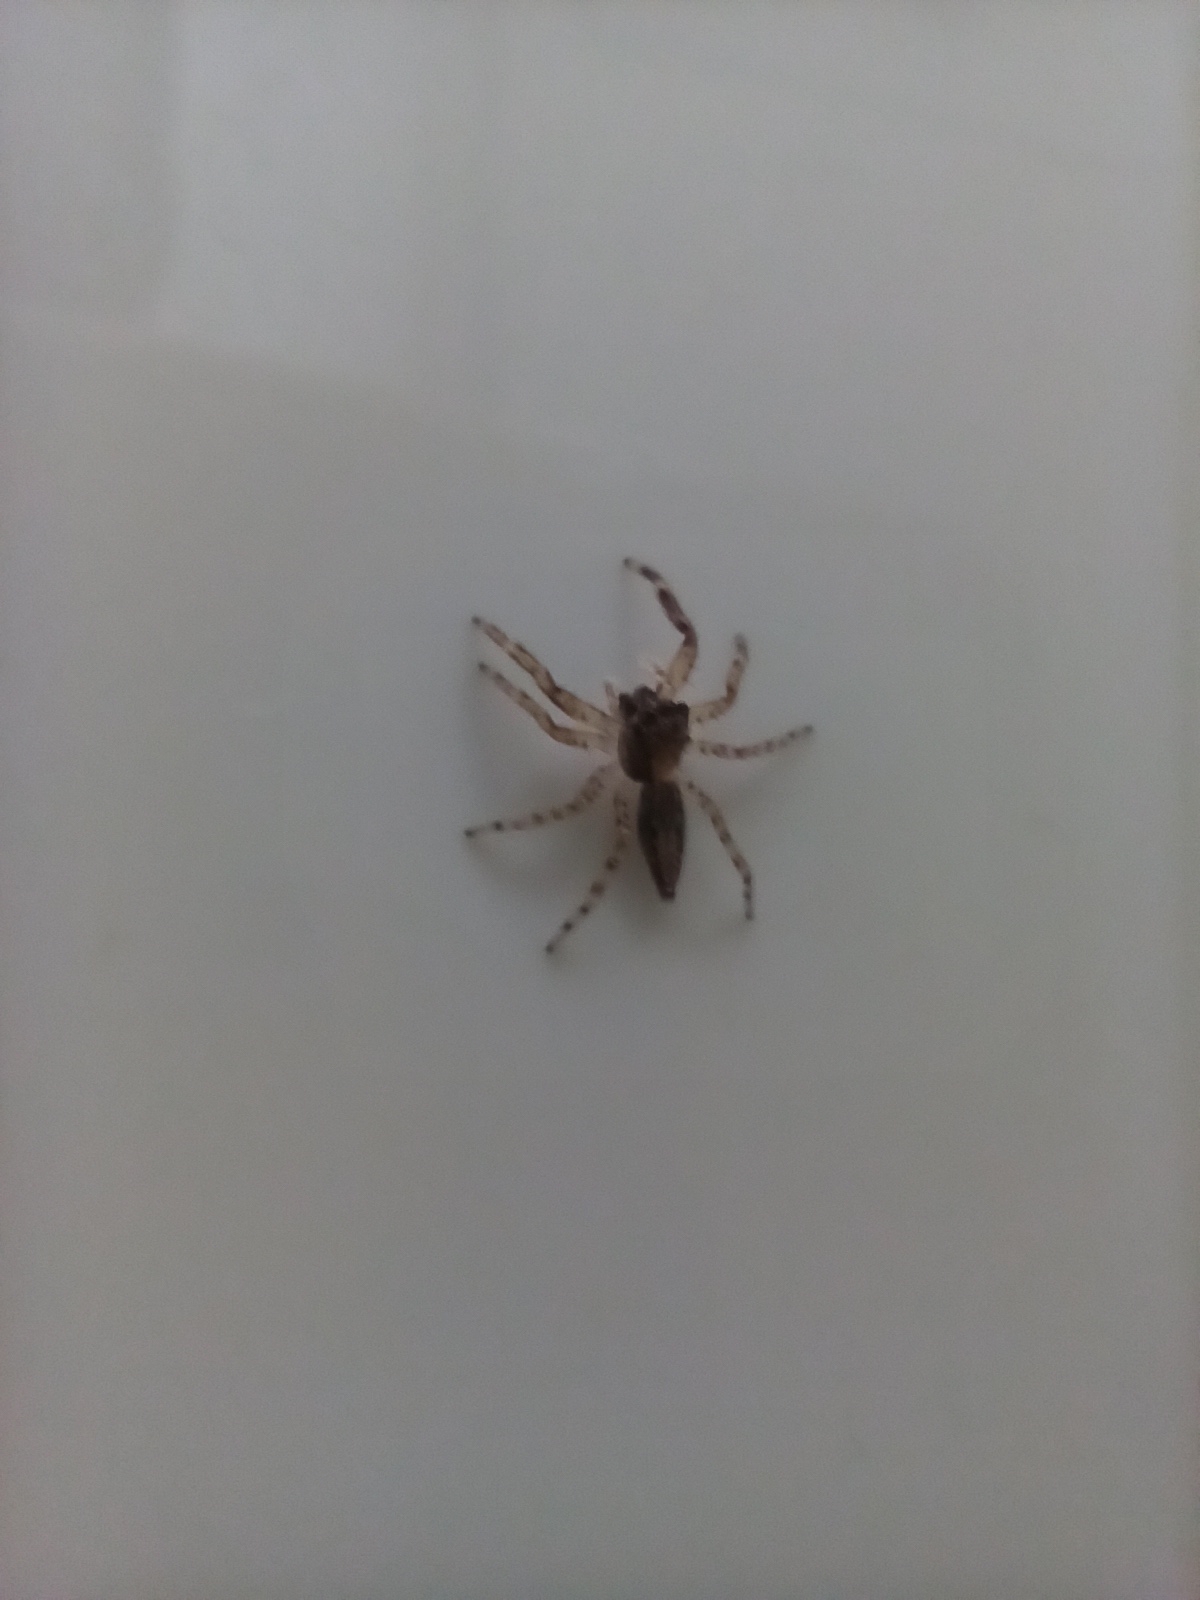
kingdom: Animalia
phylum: Arthropoda
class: Arachnida
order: Araneae
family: Salticidae
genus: Helpis
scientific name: Helpis minitabunda
